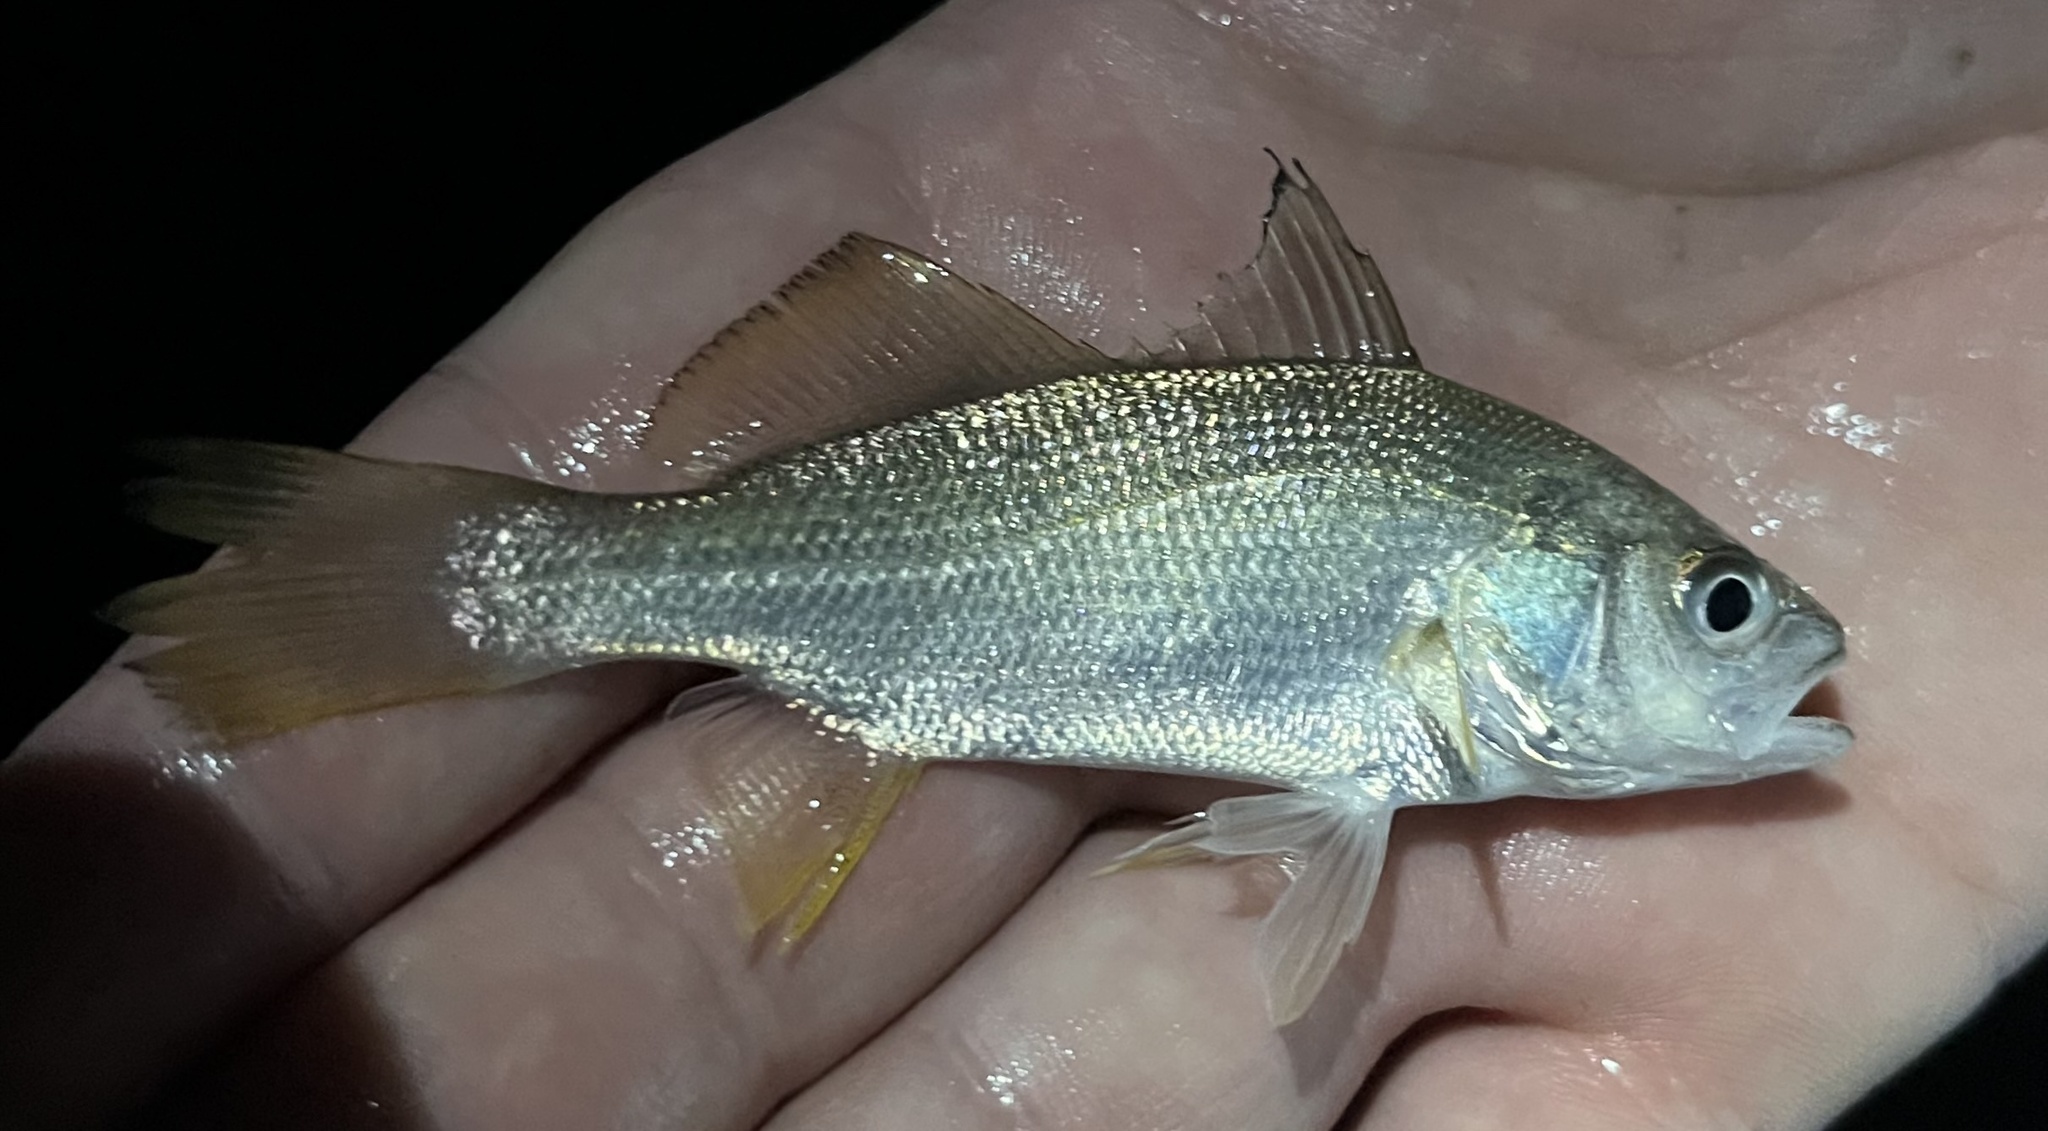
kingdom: Animalia
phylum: Chordata
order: Perciformes
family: Sciaenidae
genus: Bairdiella
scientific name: Bairdiella chrysoura
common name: Silver perch
